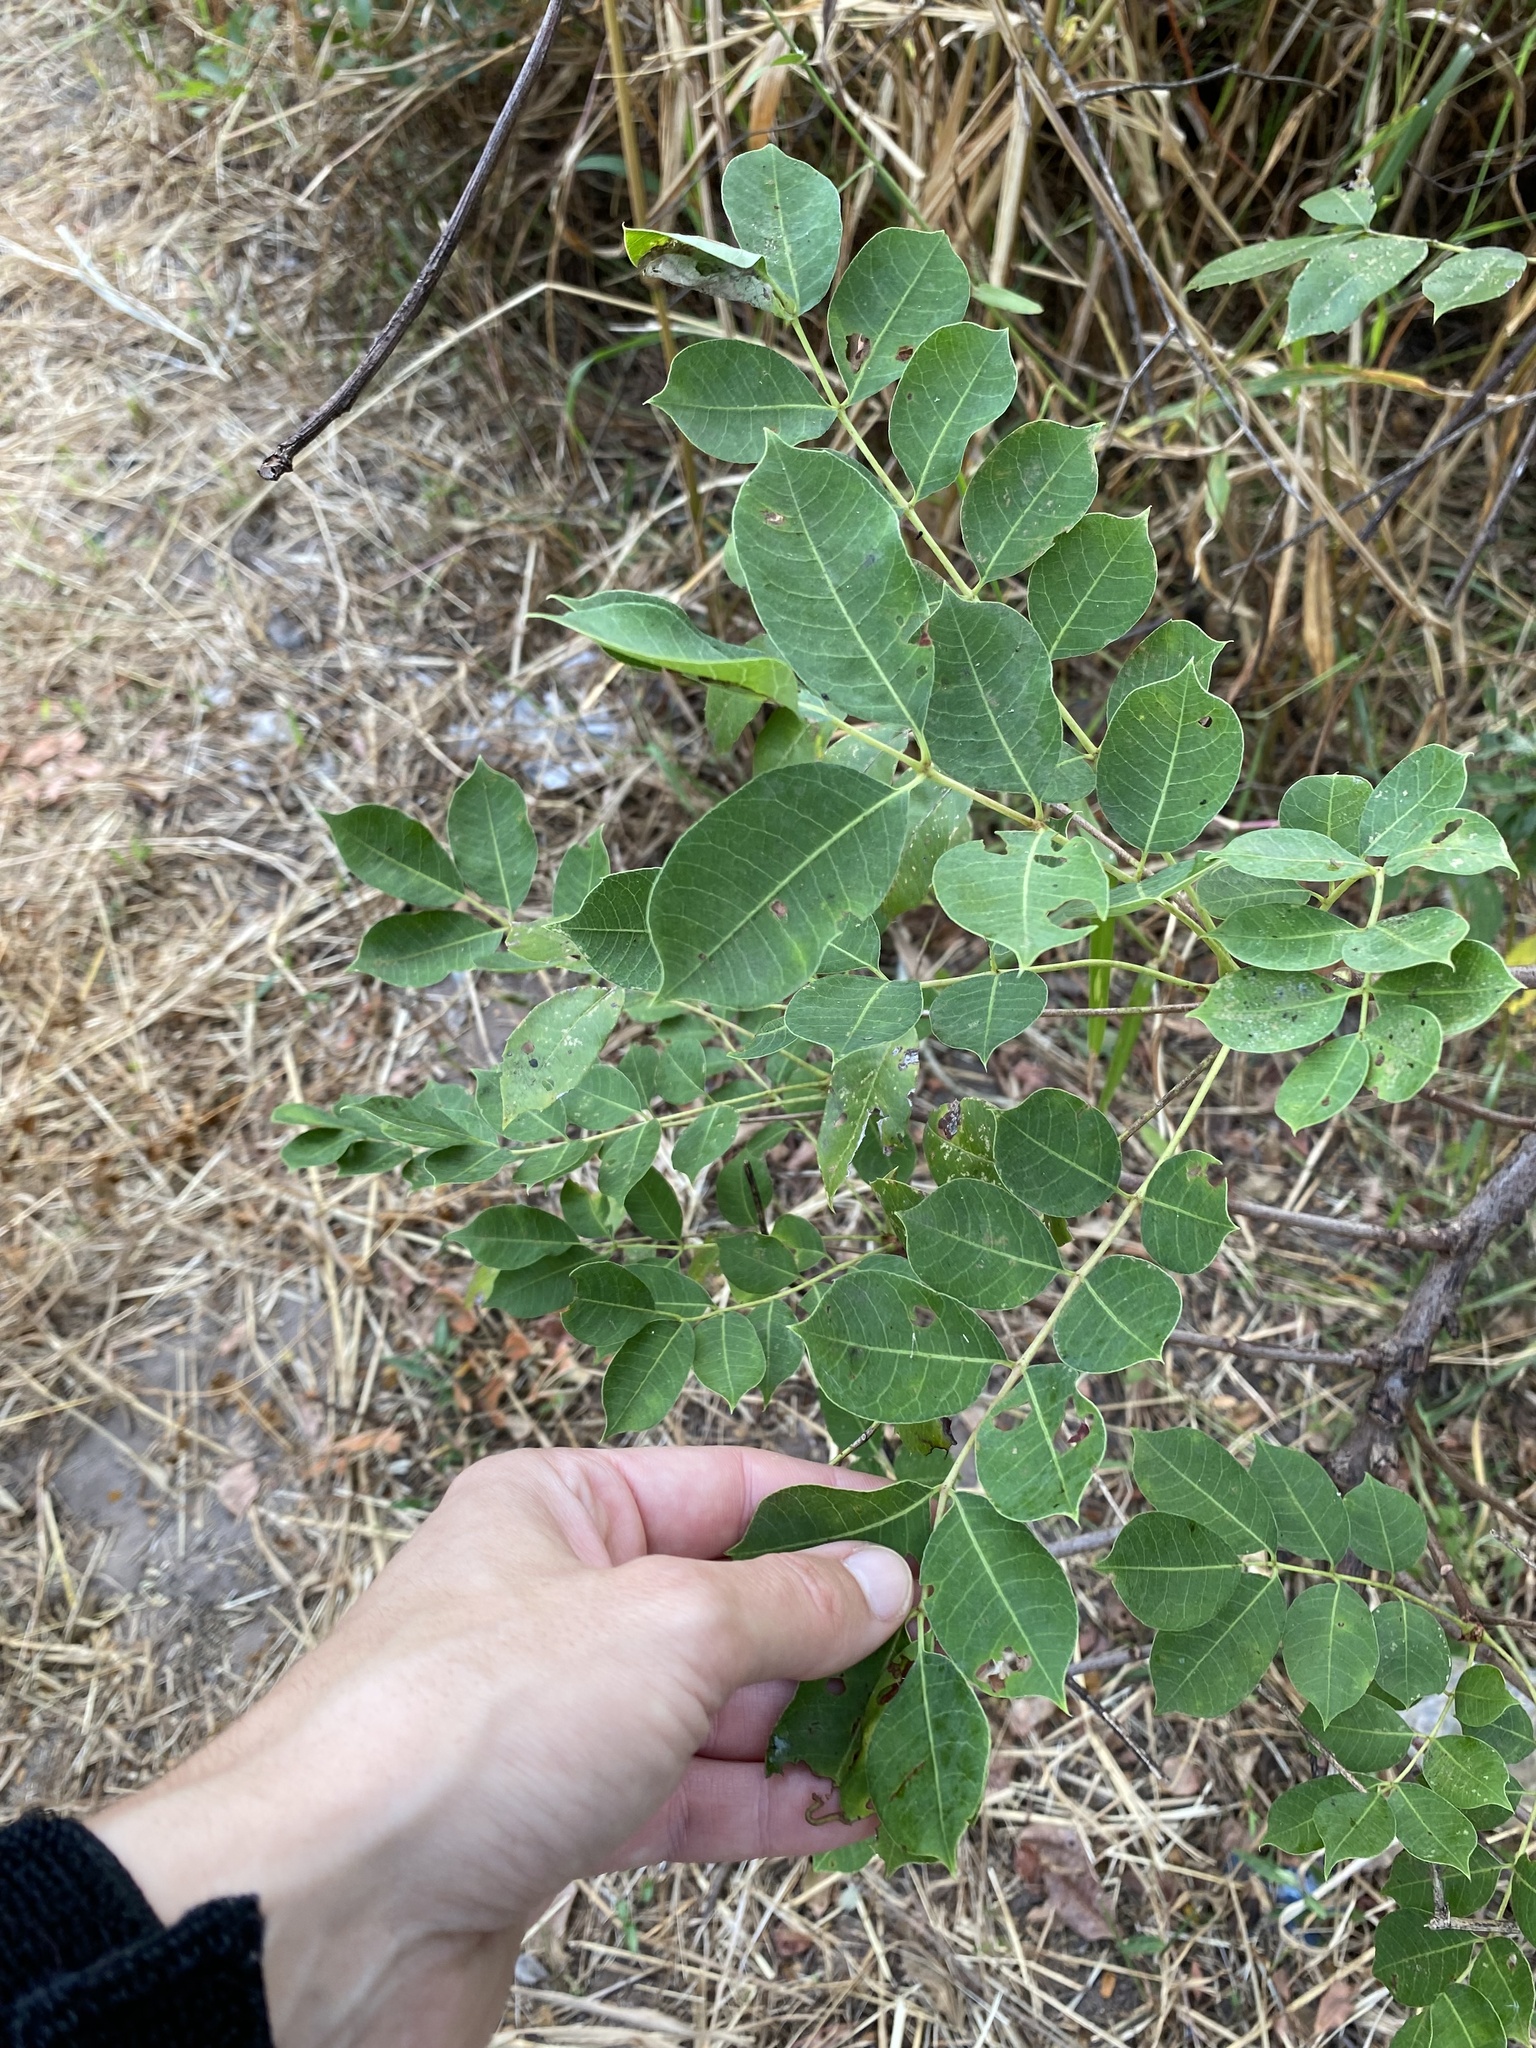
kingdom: Plantae
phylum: Tracheophyta
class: Magnoliopsida
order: Sapindales
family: Anacardiaceae
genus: Sclerocarya
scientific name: Sclerocarya birrea
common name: Marula
